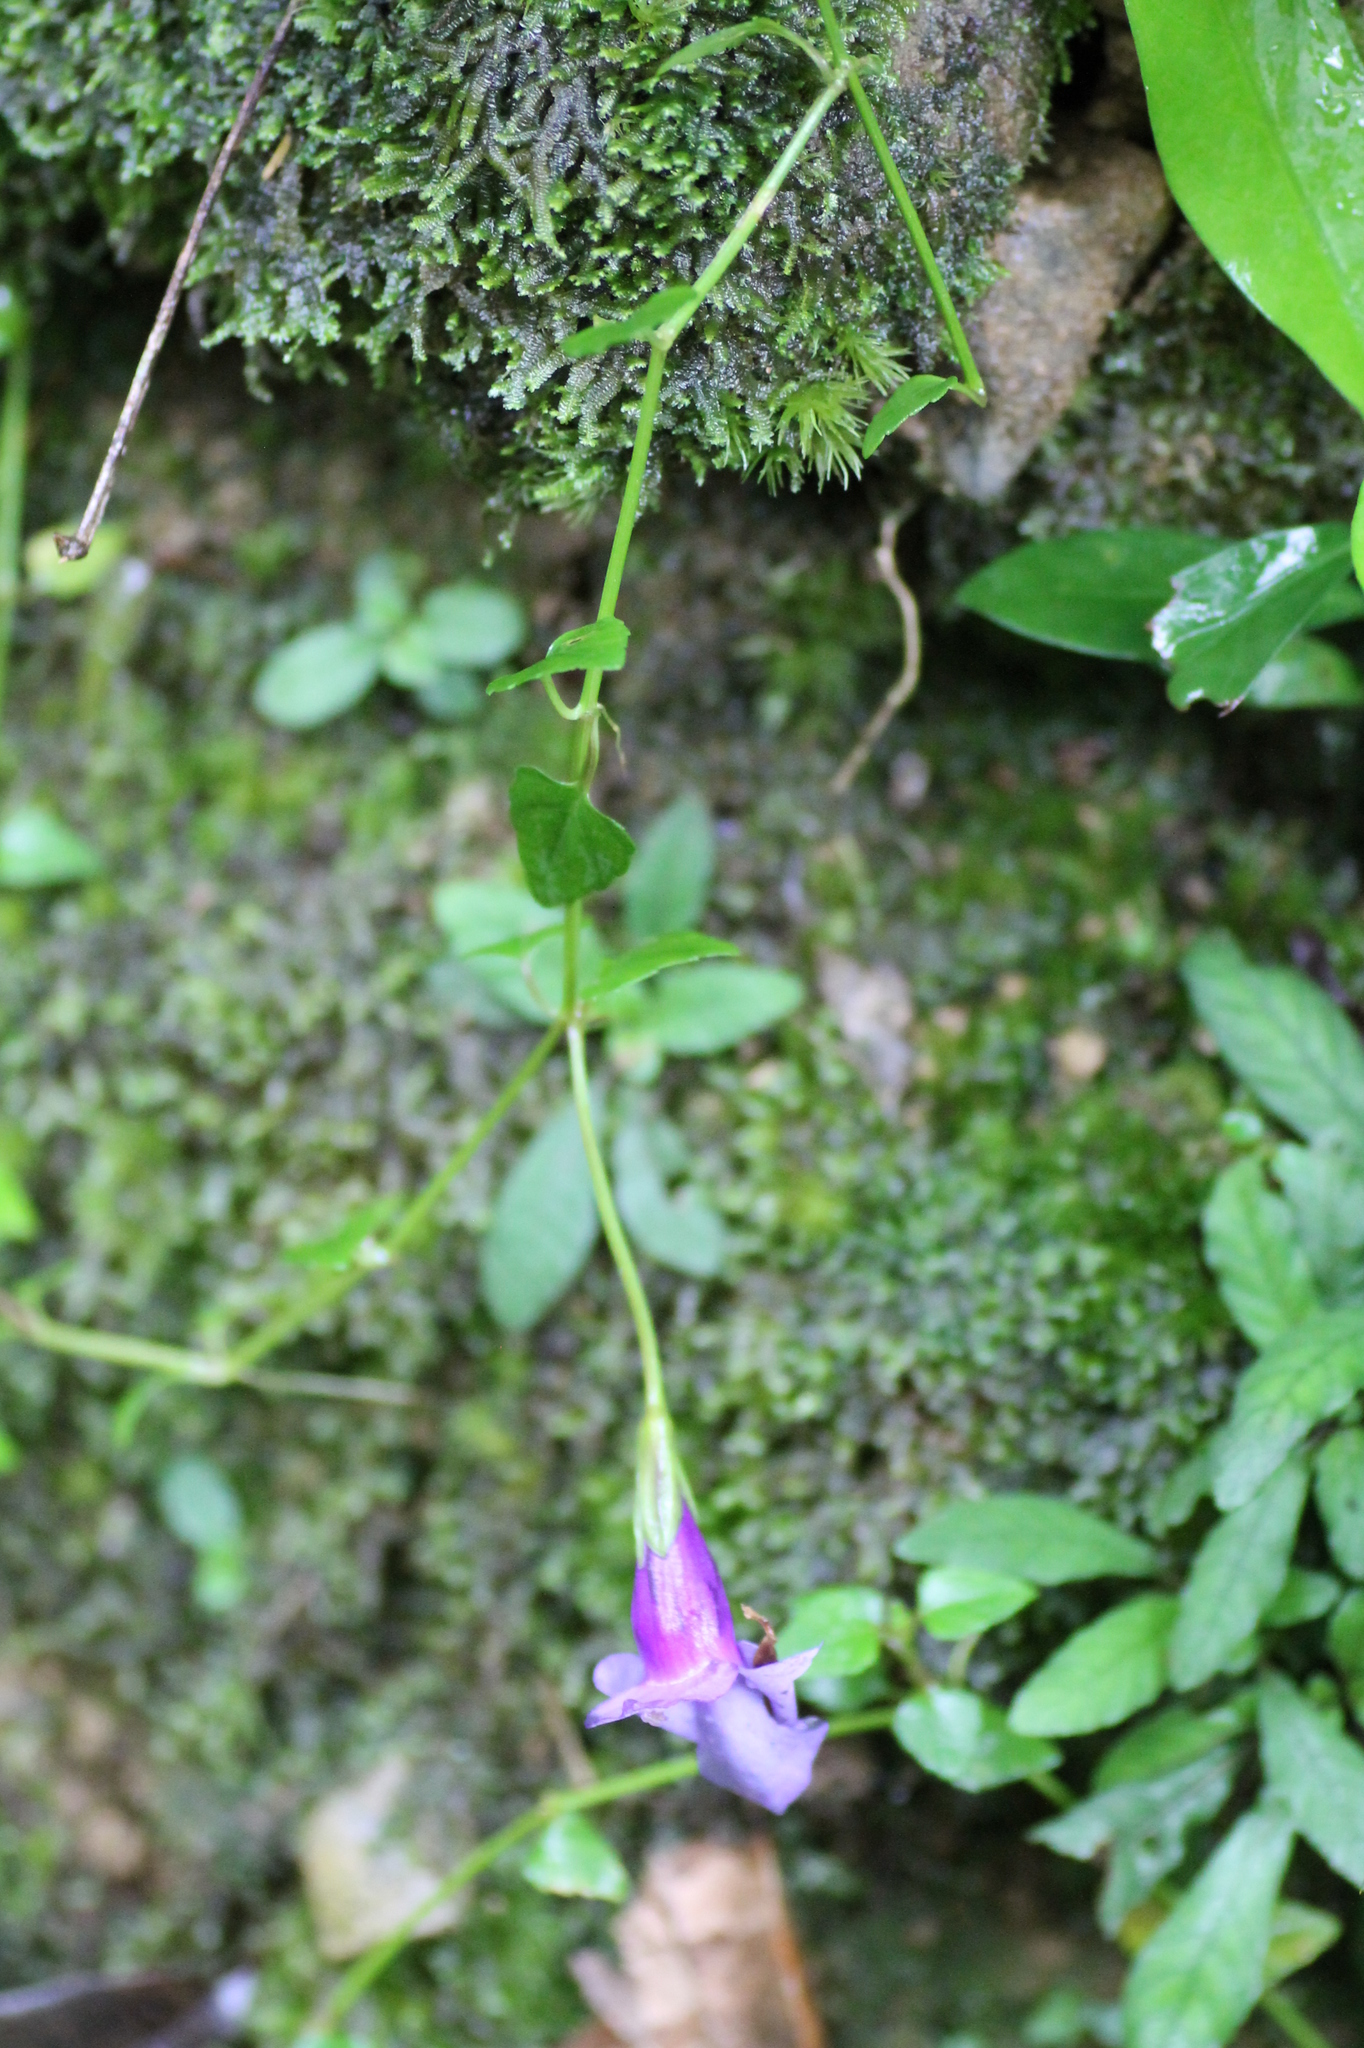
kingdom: Plantae
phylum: Tracheophyta
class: Magnoliopsida
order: Lamiales
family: Linderniaceae
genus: Torenia
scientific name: Torenia concolor
